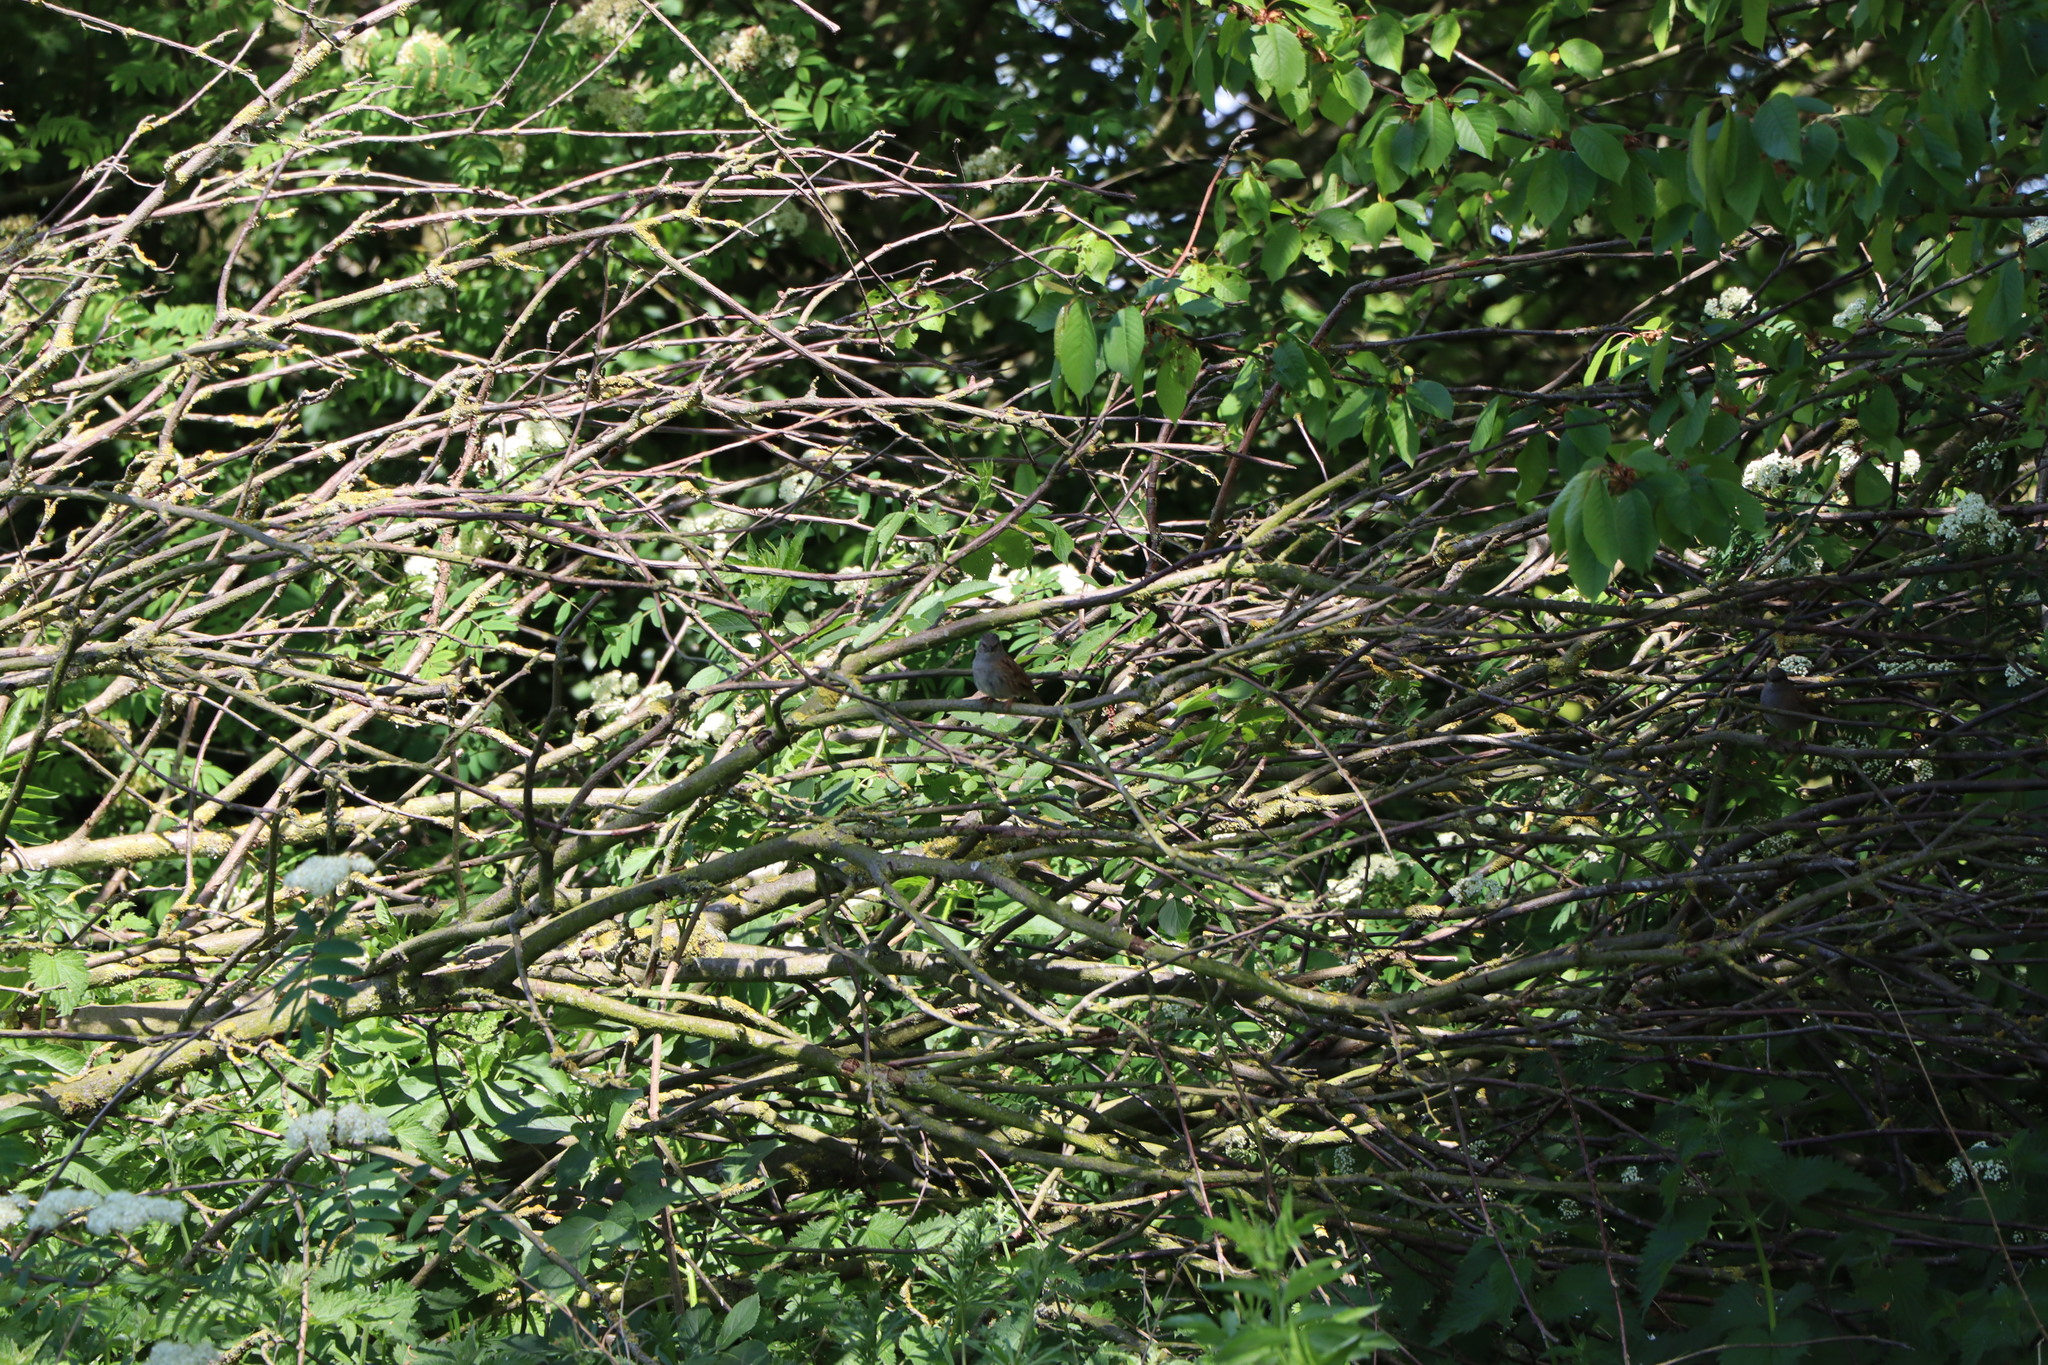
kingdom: Animalia
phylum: Chordata
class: Aves
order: Passeriformes
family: Prunellidae
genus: Prunella
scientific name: Prunella modularis
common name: Dunnock
